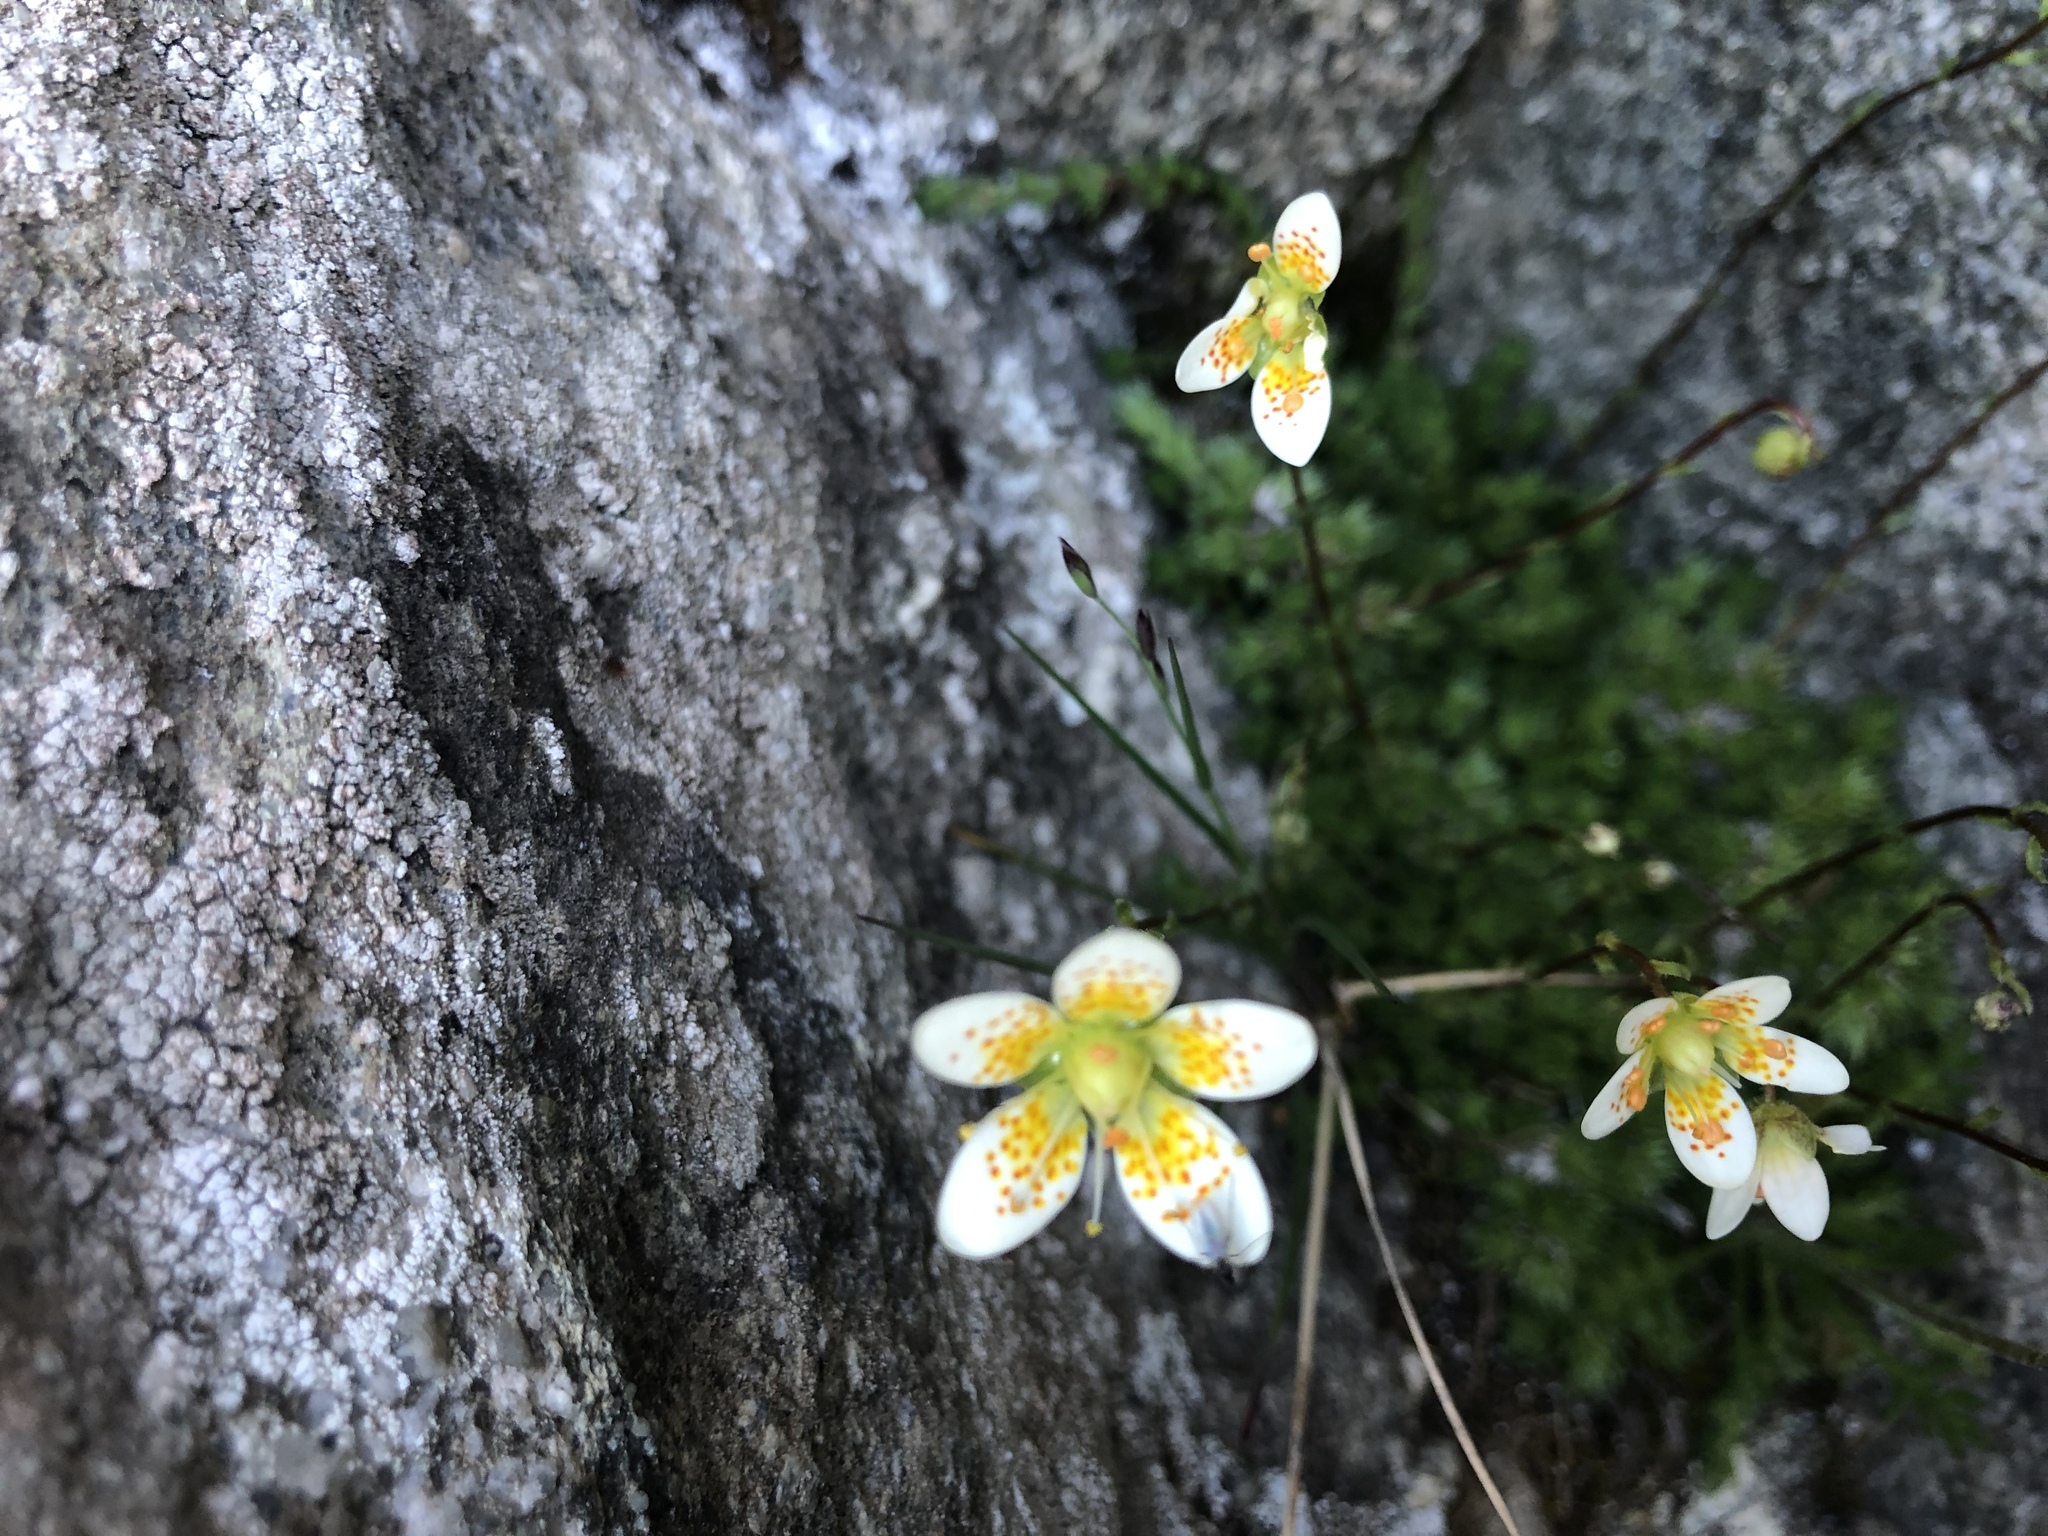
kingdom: Plantae
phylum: Tracheophyta
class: Magnoliopsida
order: Saxifragales
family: Saxifragaceae
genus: Saxifraga
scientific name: Saxifraga bryoides
